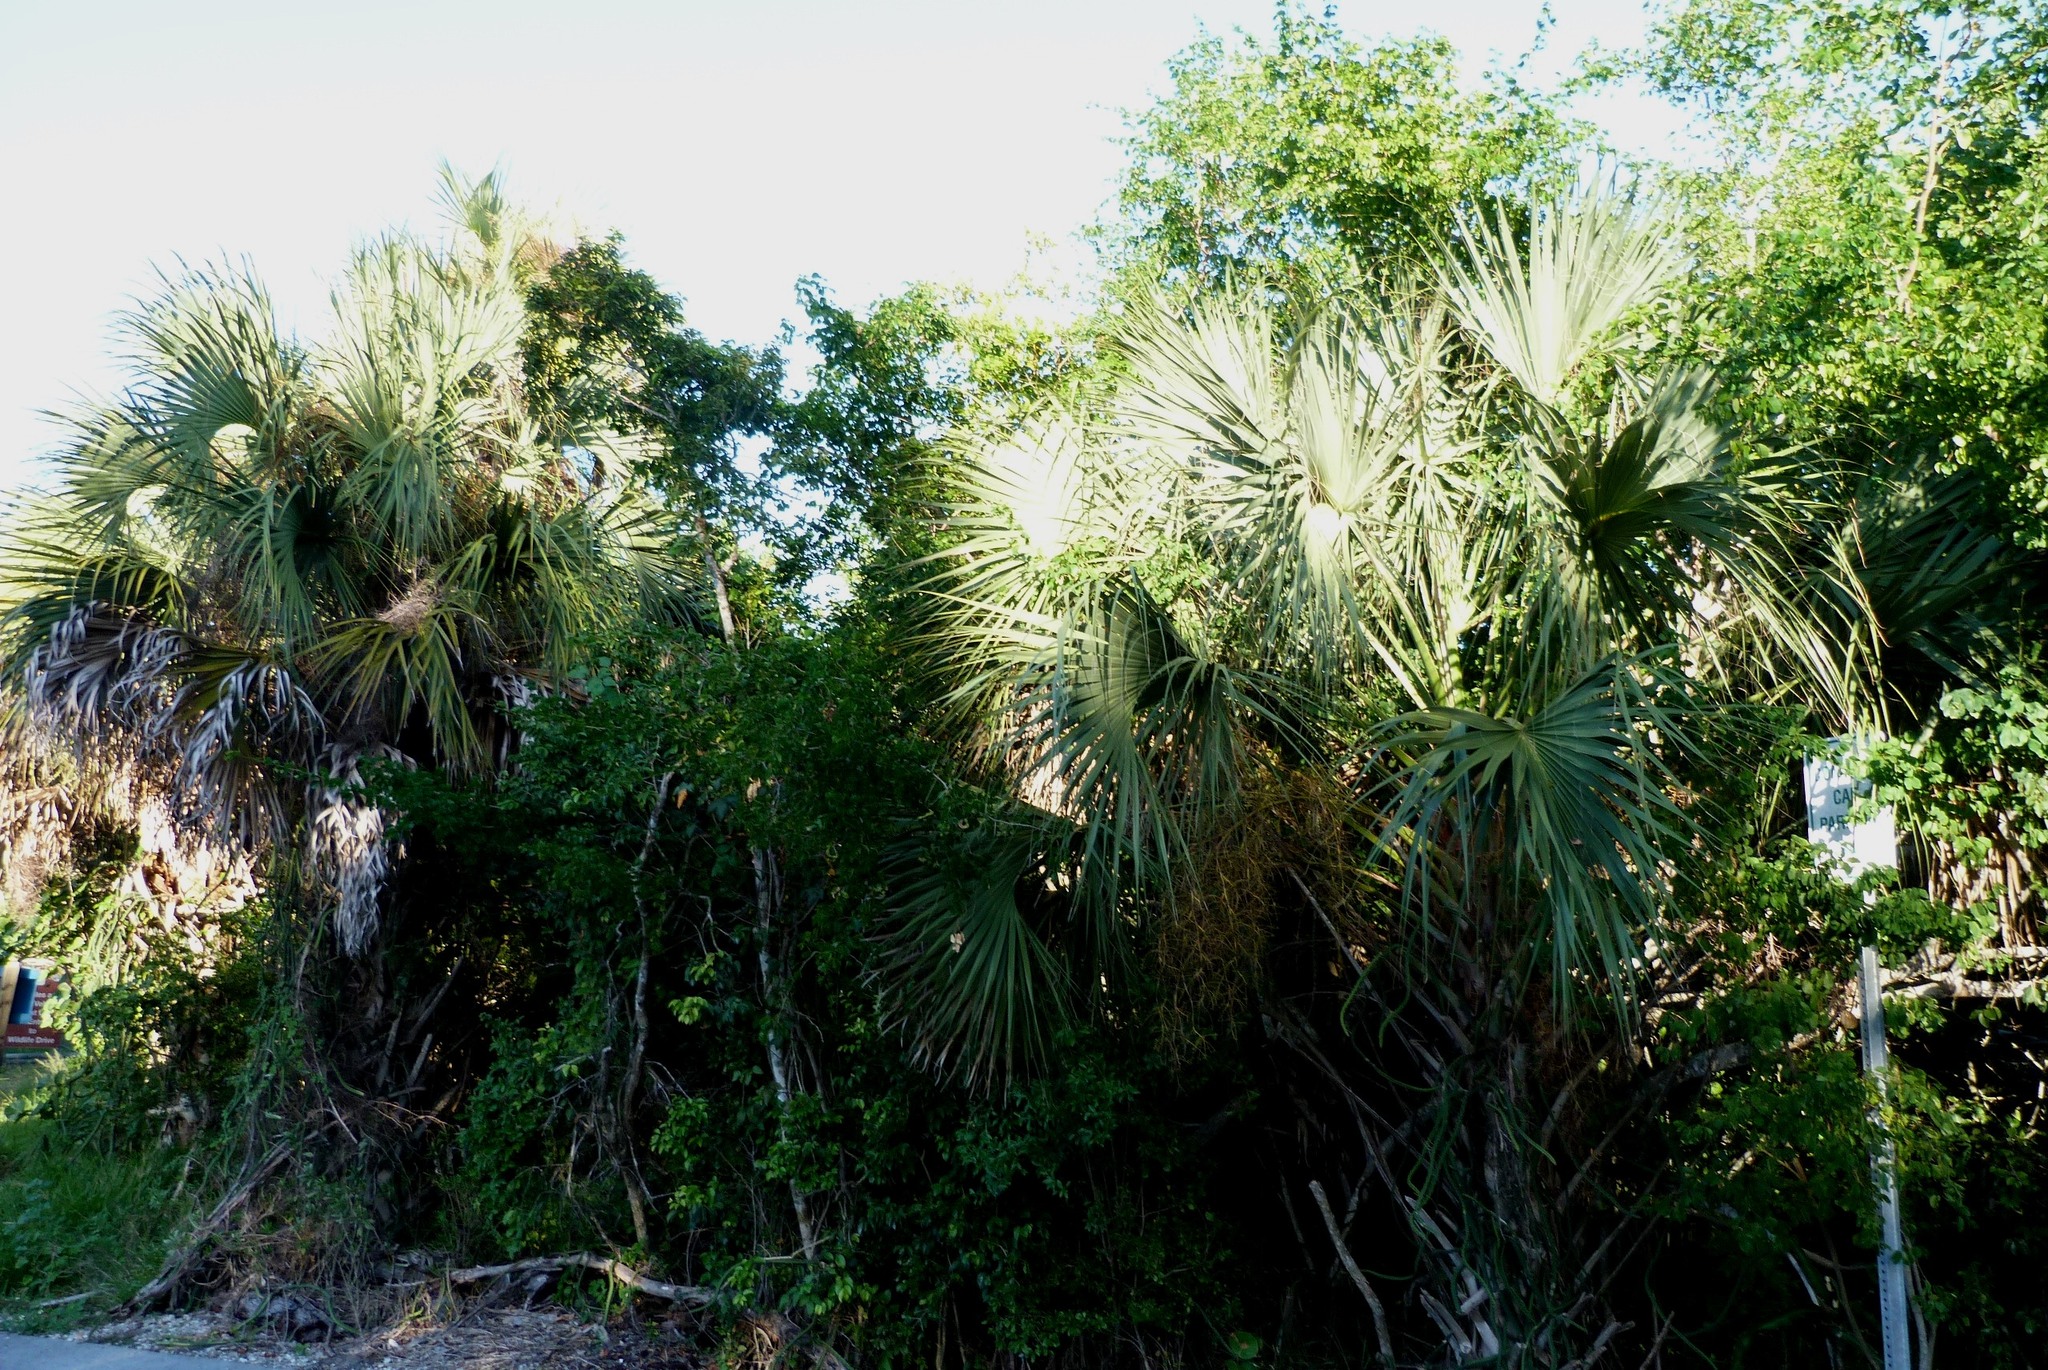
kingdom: Plantae
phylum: Tracheophyta
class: Liliopsida
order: Arecales
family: Arecaceae
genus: Sabal
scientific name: Sabal palmetto
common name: Blue palmetto
